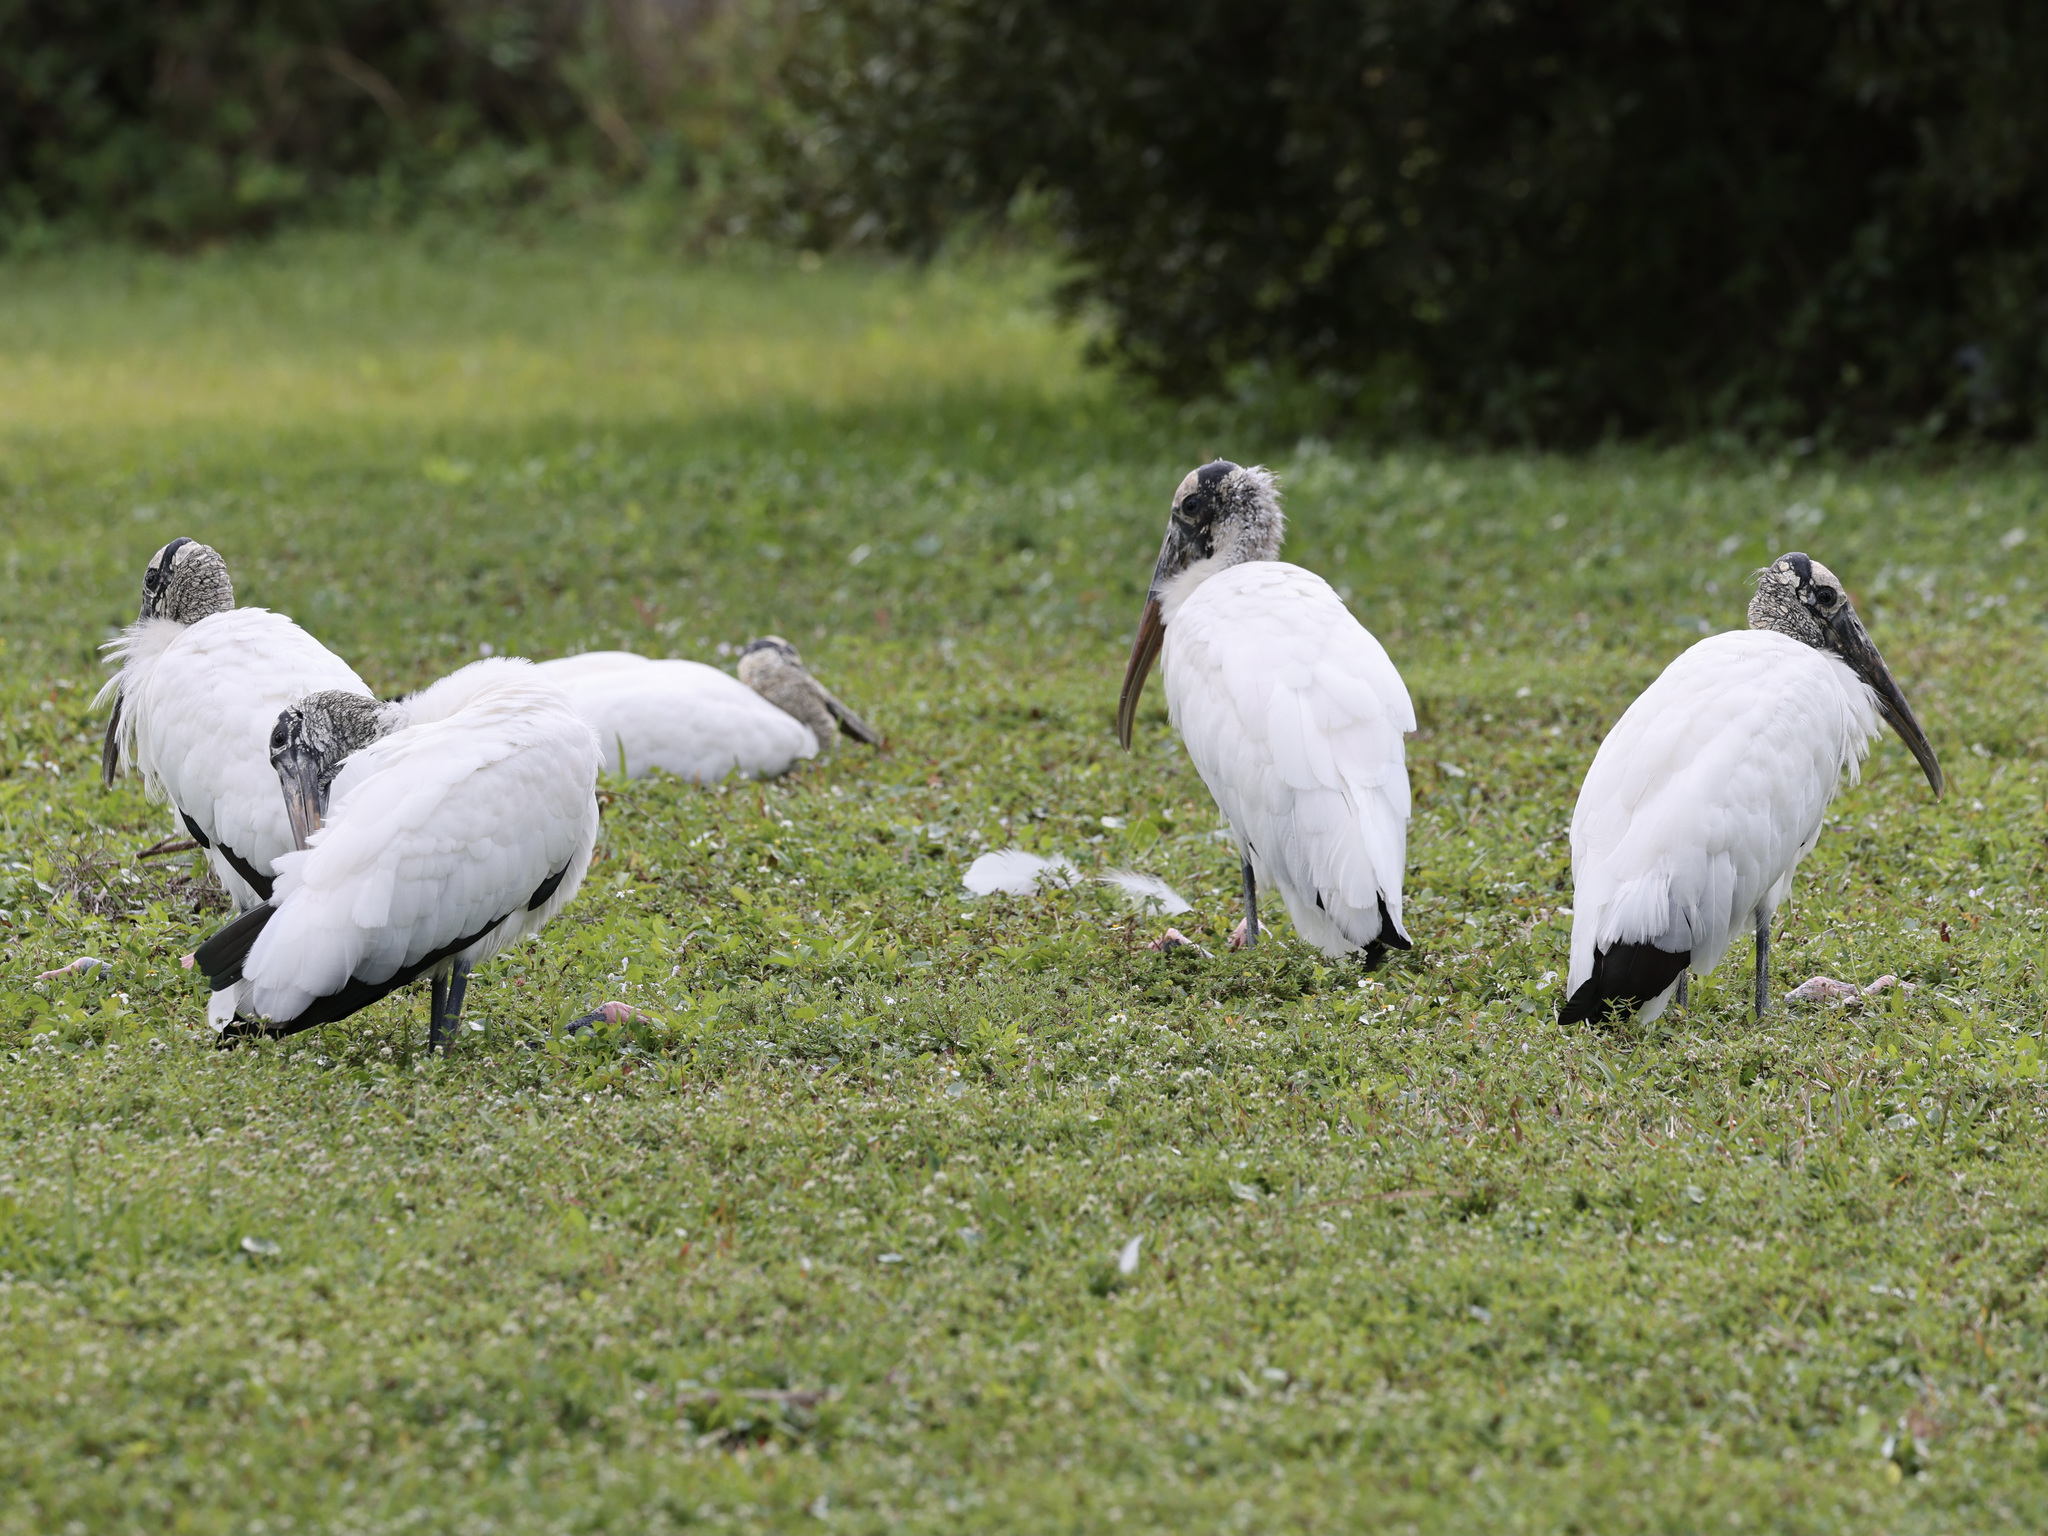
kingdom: Animalia
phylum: Chordata
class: Aves
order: Ciconiiformes
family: Ciconiidae
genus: Mycteria
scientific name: Mycteria americana
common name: Wood stork
